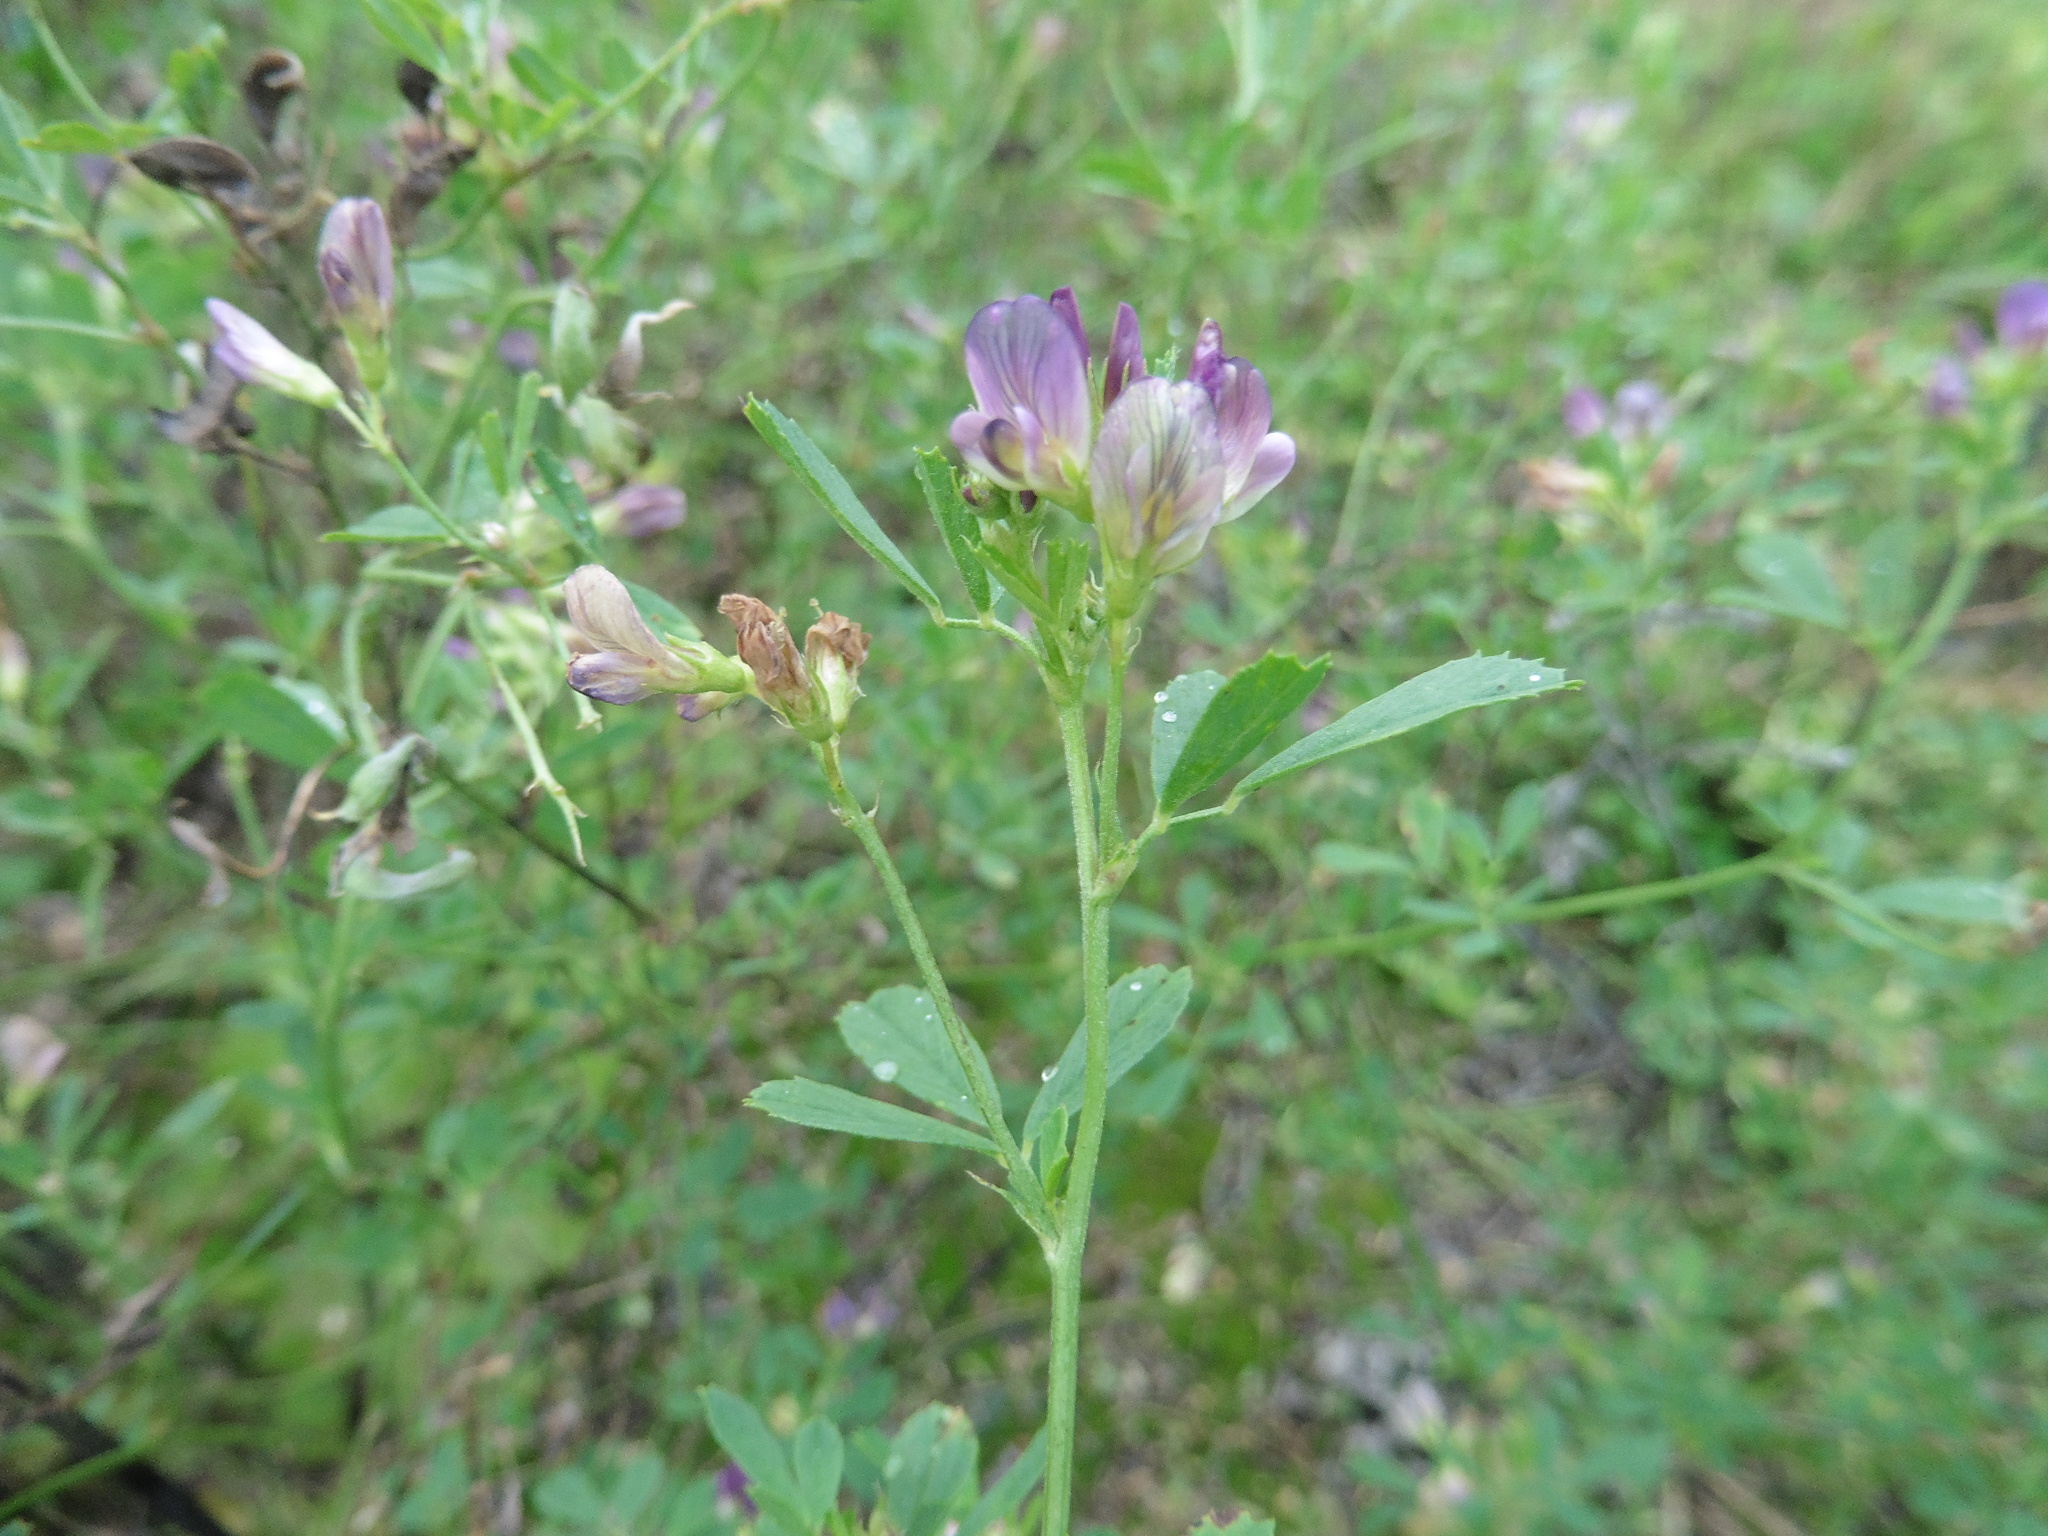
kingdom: Plantae
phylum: Tracheophyta
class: Magnoliopsida
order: Fabales
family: Fabaceae
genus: Medicago
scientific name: Medicago varia
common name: Sand lucerne
